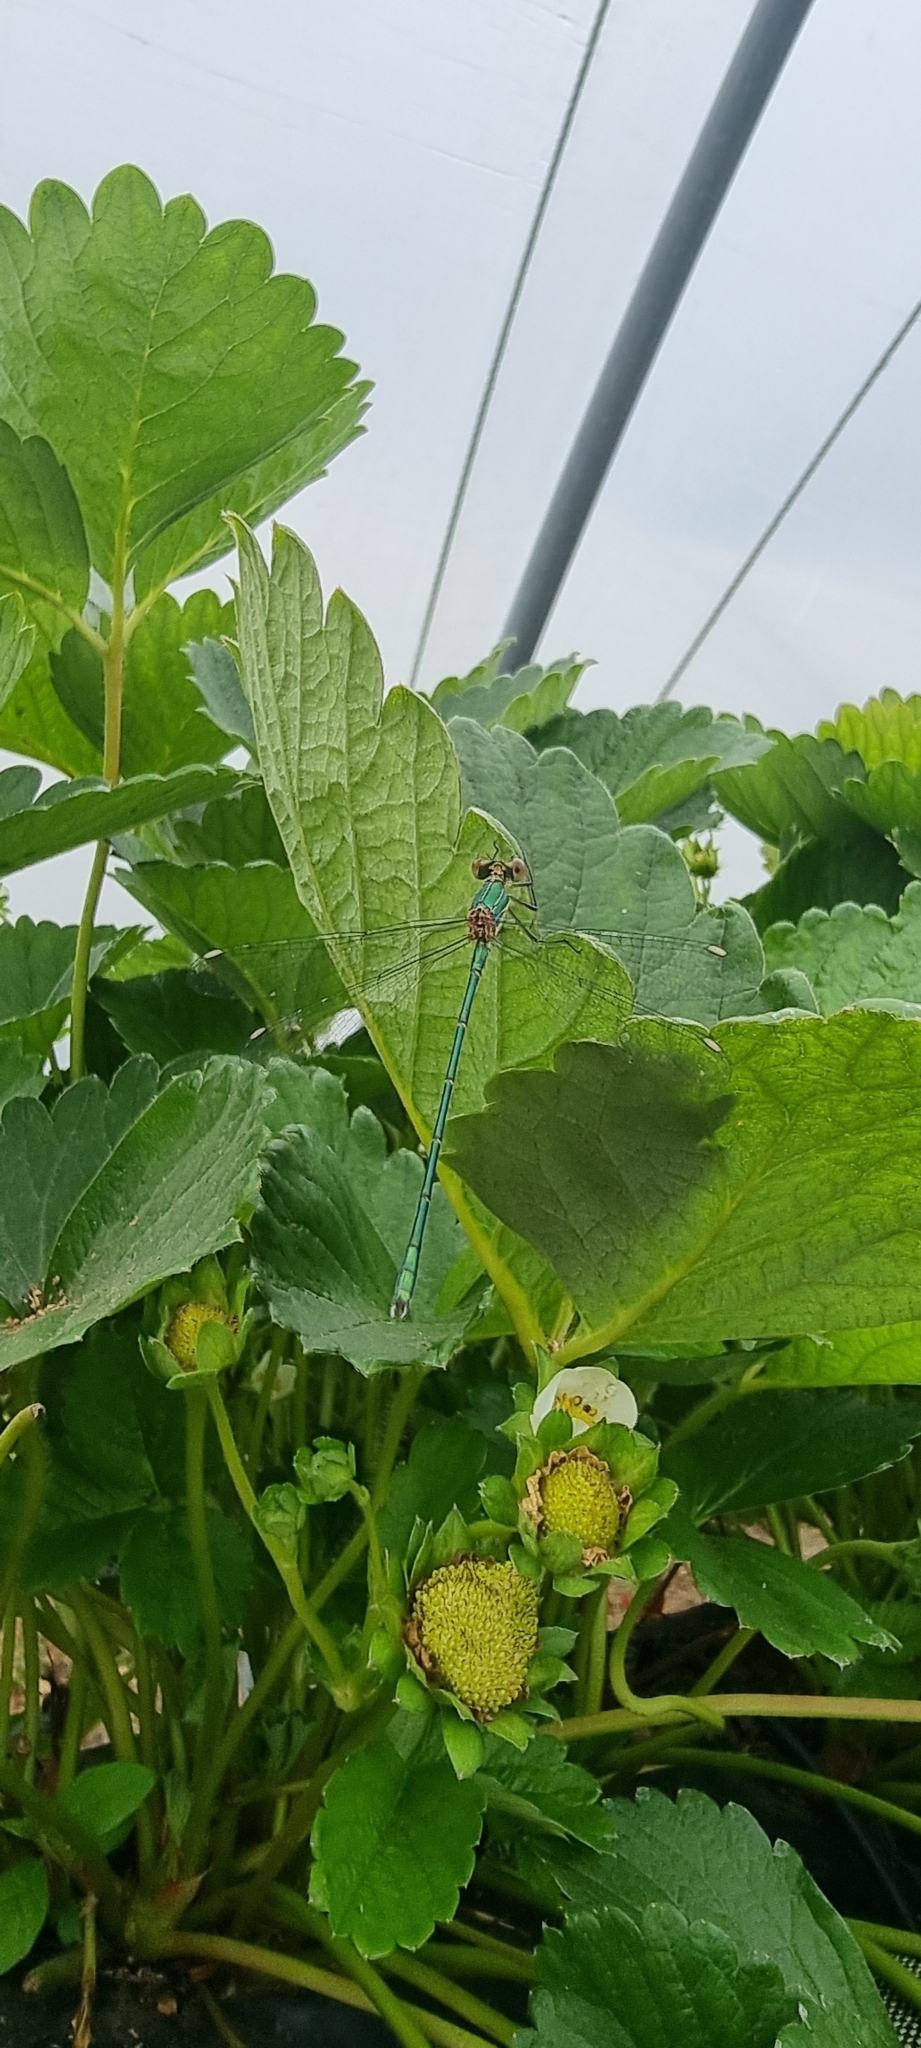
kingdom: Animalia
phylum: Arthropoda
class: Insecta
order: Odonata
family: Lestidae
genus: Chalcolestes
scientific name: Chalcolestes viridis
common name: Green emerald damselfly
